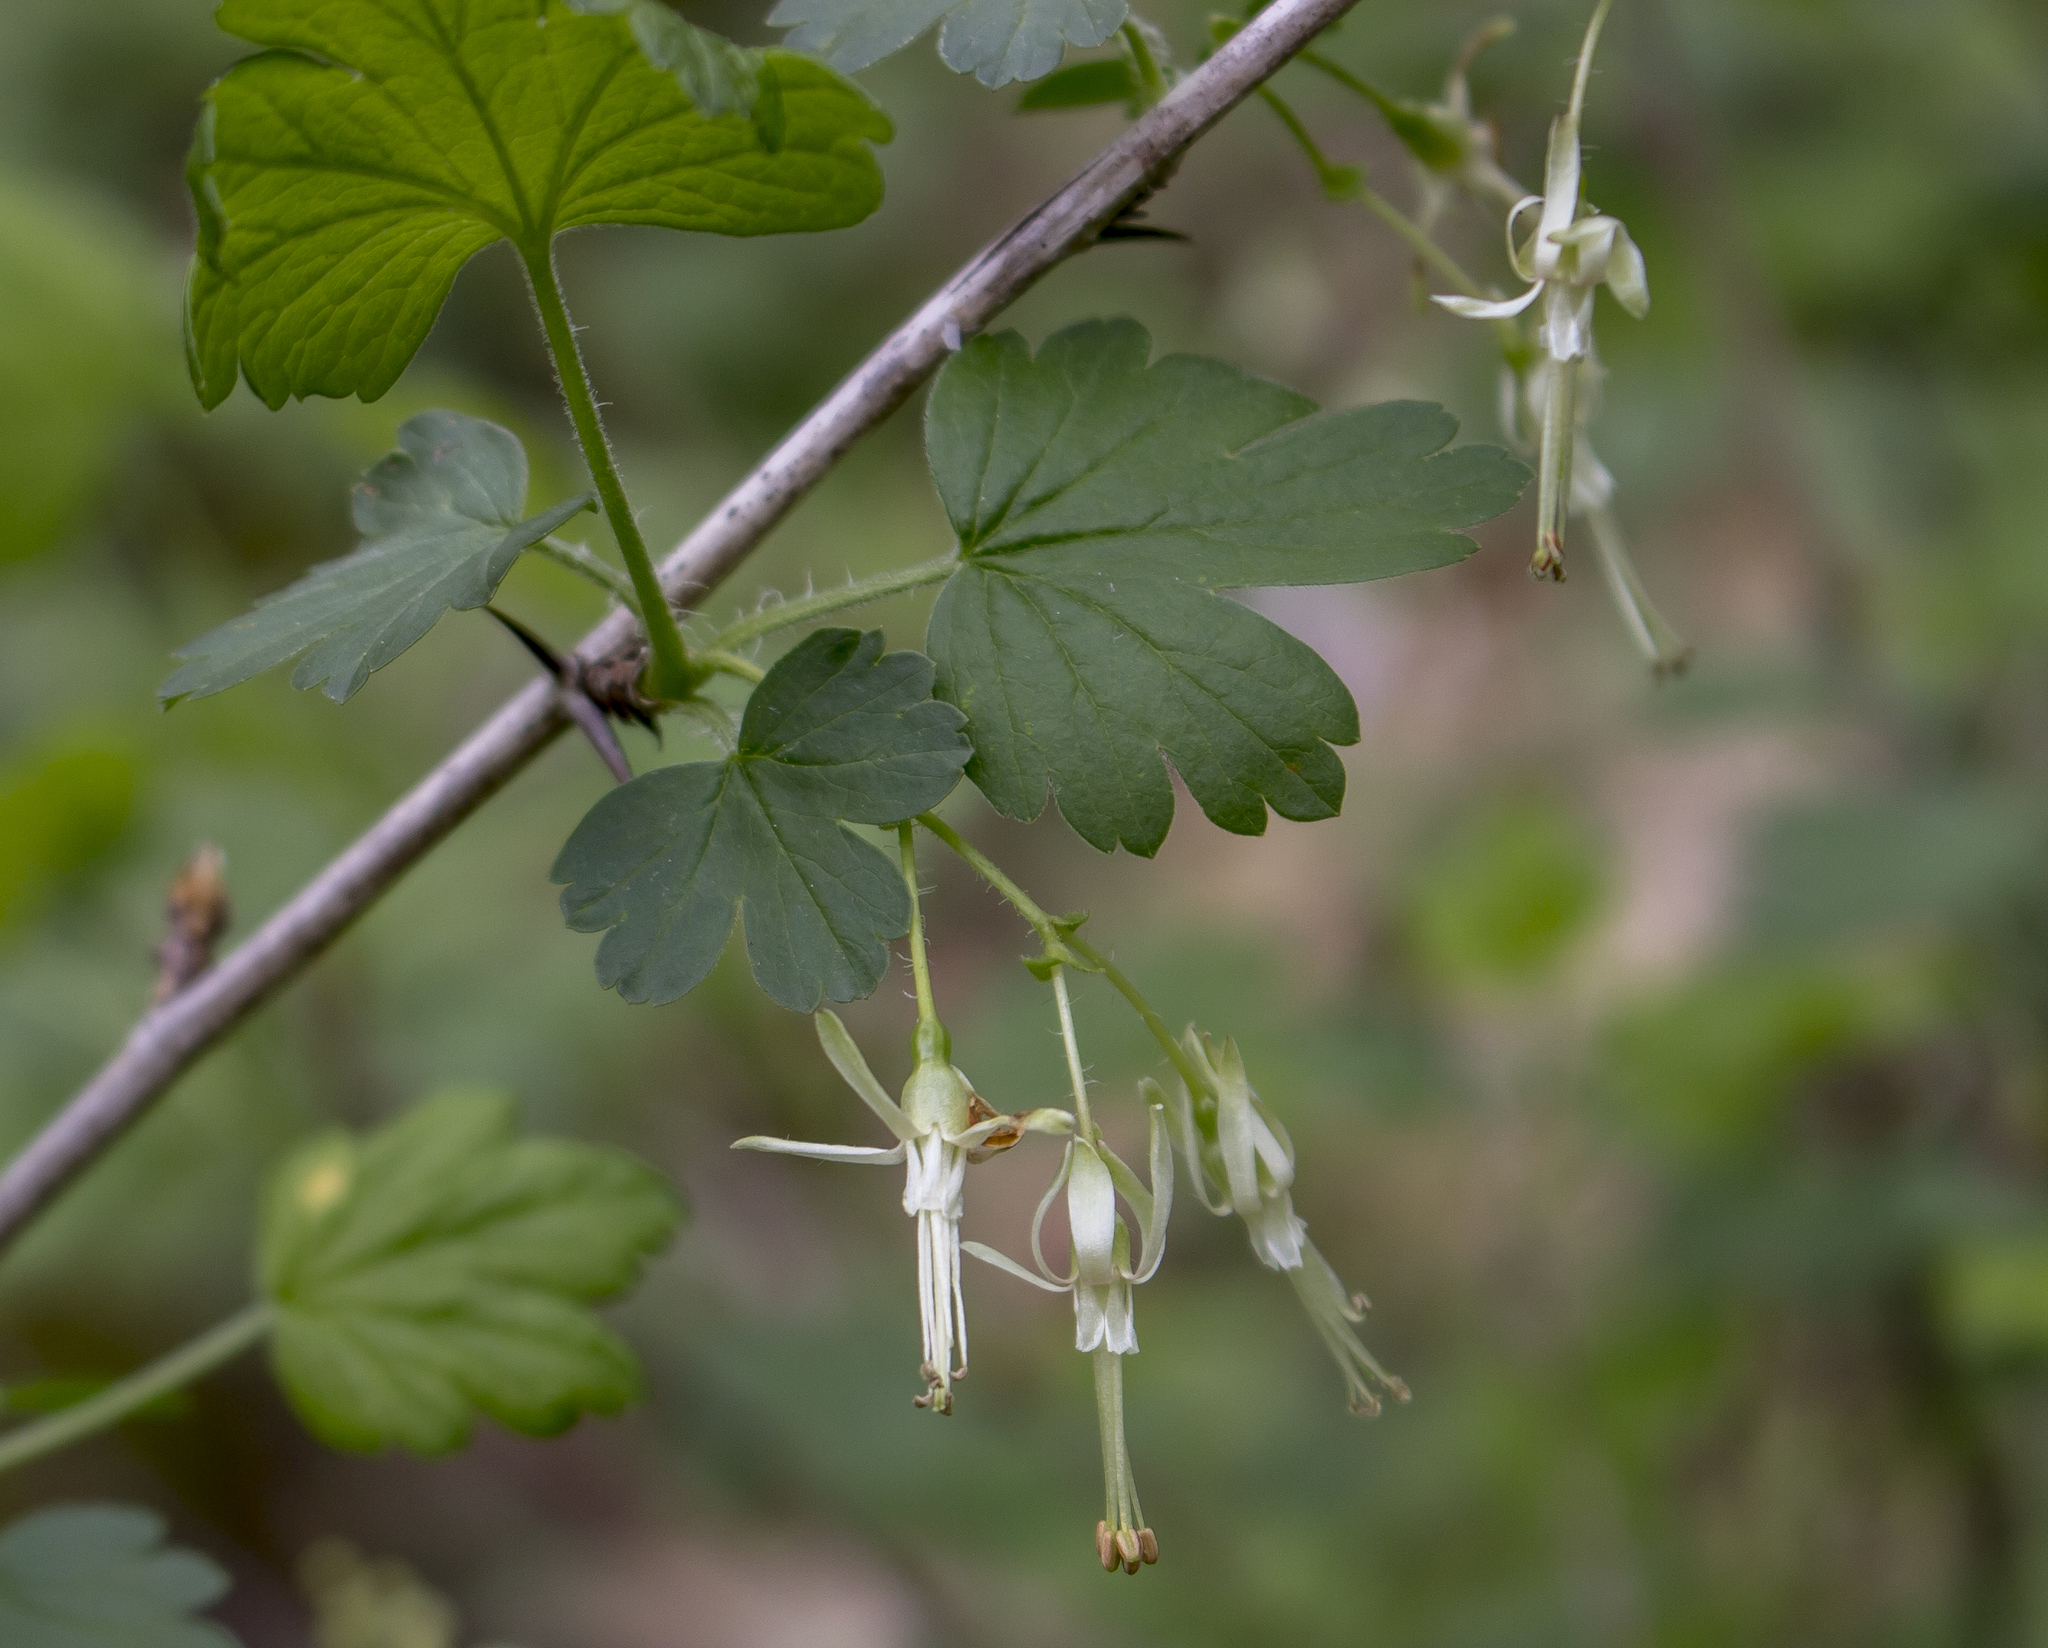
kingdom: Plantae
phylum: Tracheophyta
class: Magnoliopsida
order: Saxifragales
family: Grossulariaceae
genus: Ribes
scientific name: Ribes missouriense
